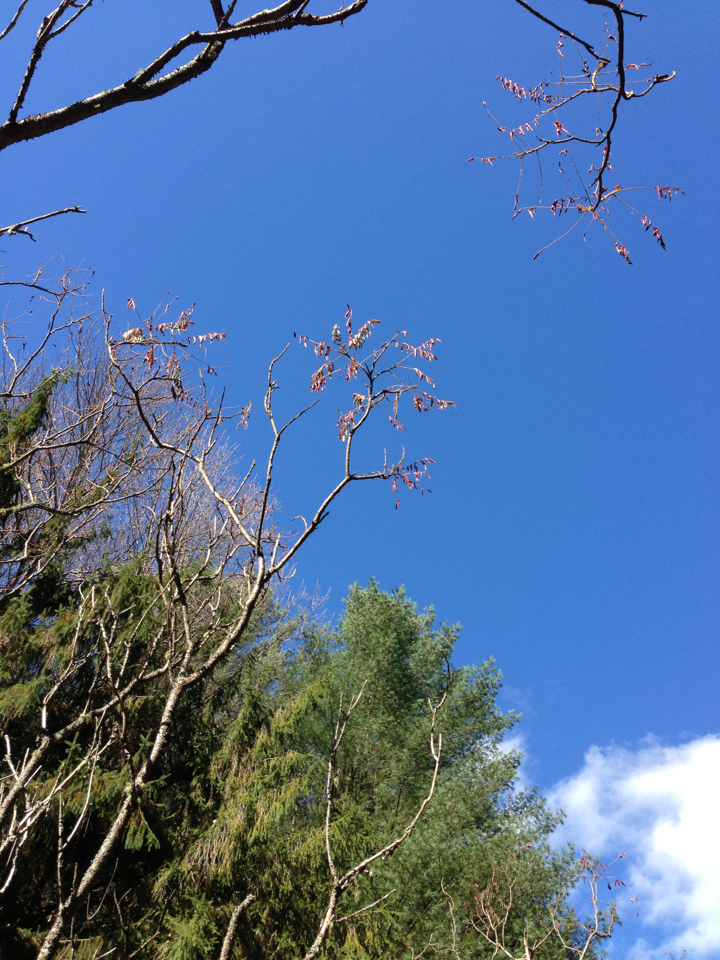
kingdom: Plantae
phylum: Tracheophyta
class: Magnoliopsida
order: Sapindales
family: Anacardiaceae
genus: Rhus
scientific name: Rhus typhina
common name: Staghorn sumac
